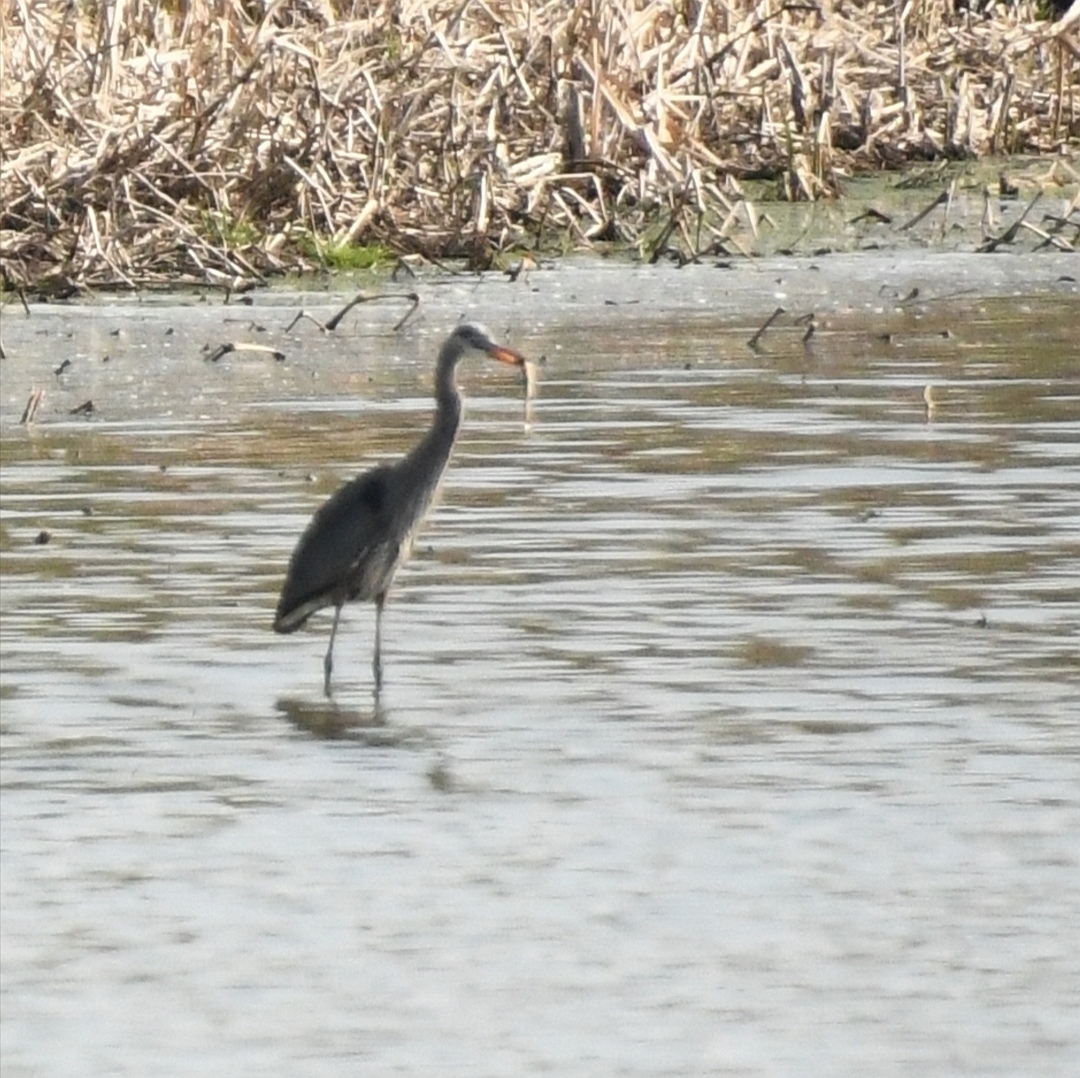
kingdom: Animalia
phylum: Chordata
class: Aves
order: Pelecaniformes
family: Ardeidae
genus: Ardea
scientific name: Ardea herodias
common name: Great blue heron
